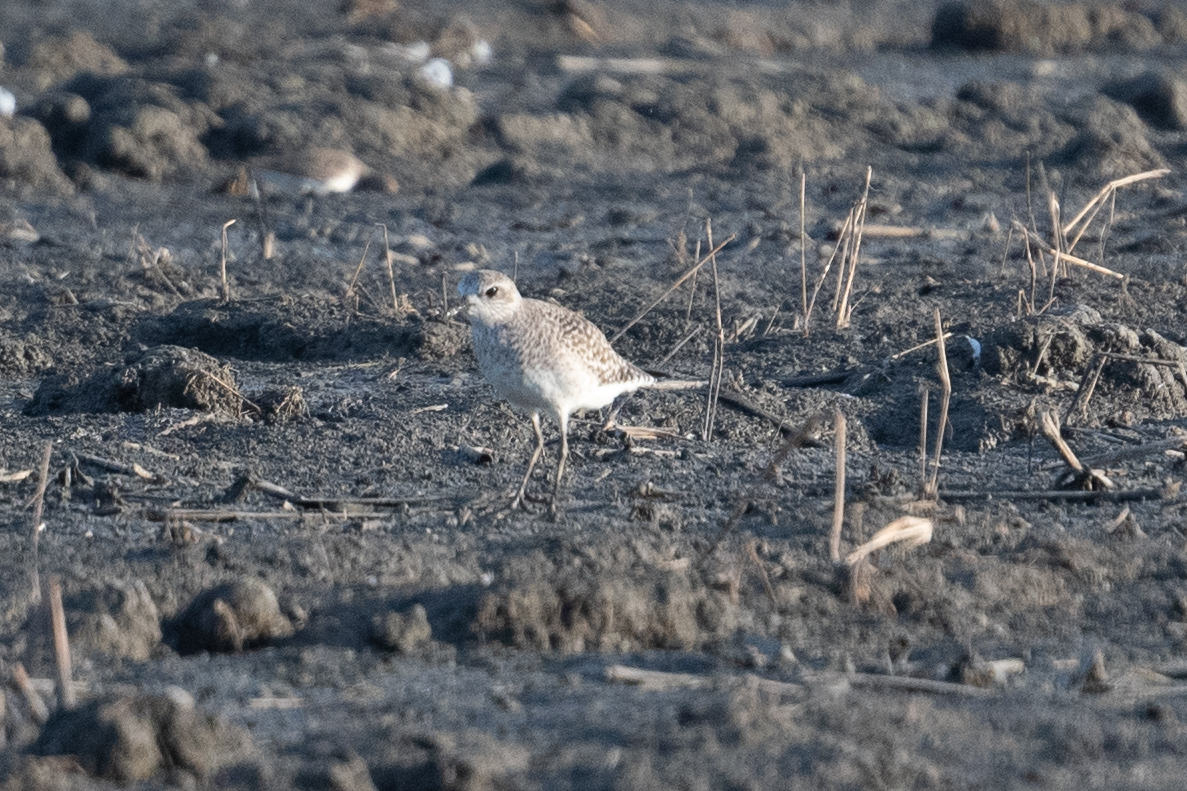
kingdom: Animalia
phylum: Chordata
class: Aves
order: Charadriiformes
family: Charadriidae
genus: Pluvialis
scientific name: Pluvialis squatarola
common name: Grey plover
